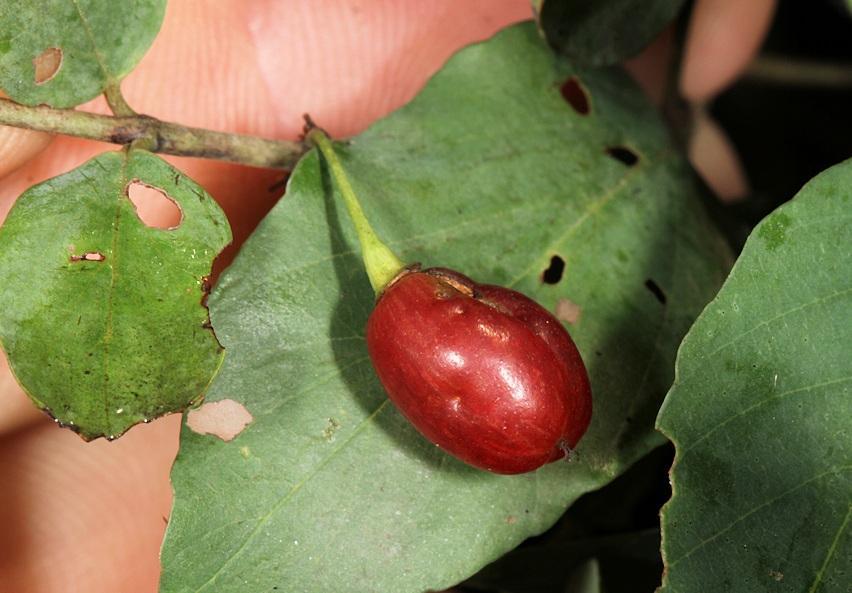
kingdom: Plantae
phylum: Tracheophyta
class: Magnoliopsida
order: Rosales
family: Rhamnaceae
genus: Phyllogeiton
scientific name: Phyllogeiton zeyheri
